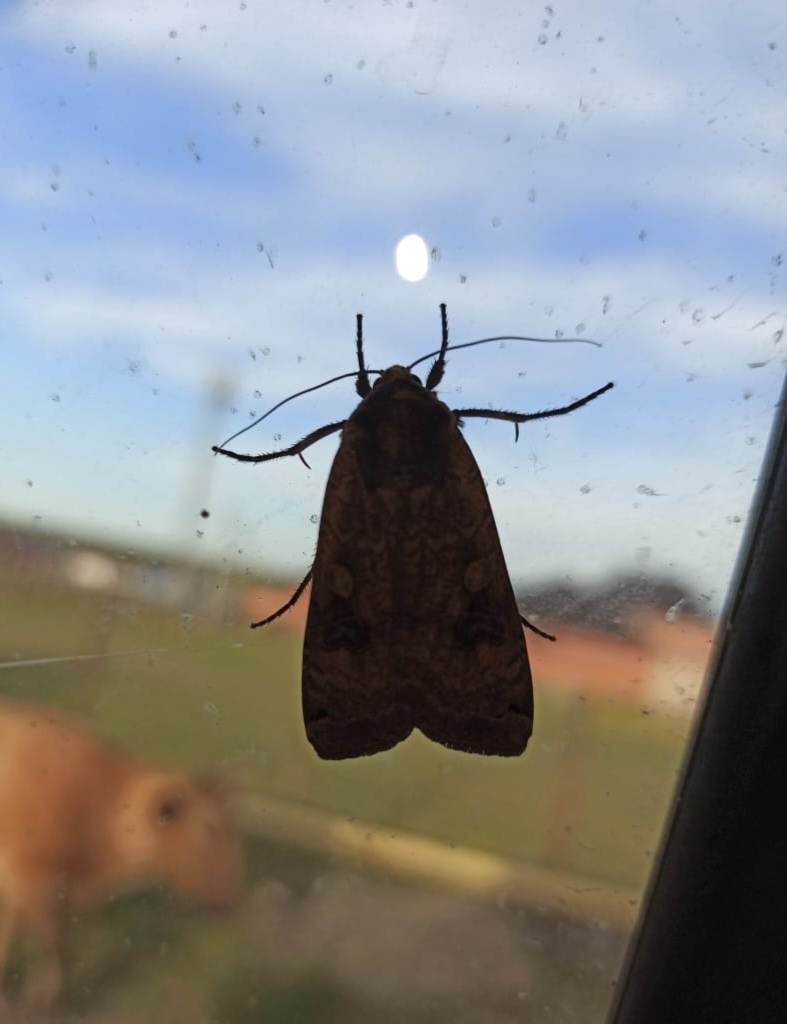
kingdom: Animalia
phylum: Arthropoda
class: Insecta
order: Lepidoptera
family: Noctuidae
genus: Noctua
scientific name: Noctua pronuba
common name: Large yellow underwing
